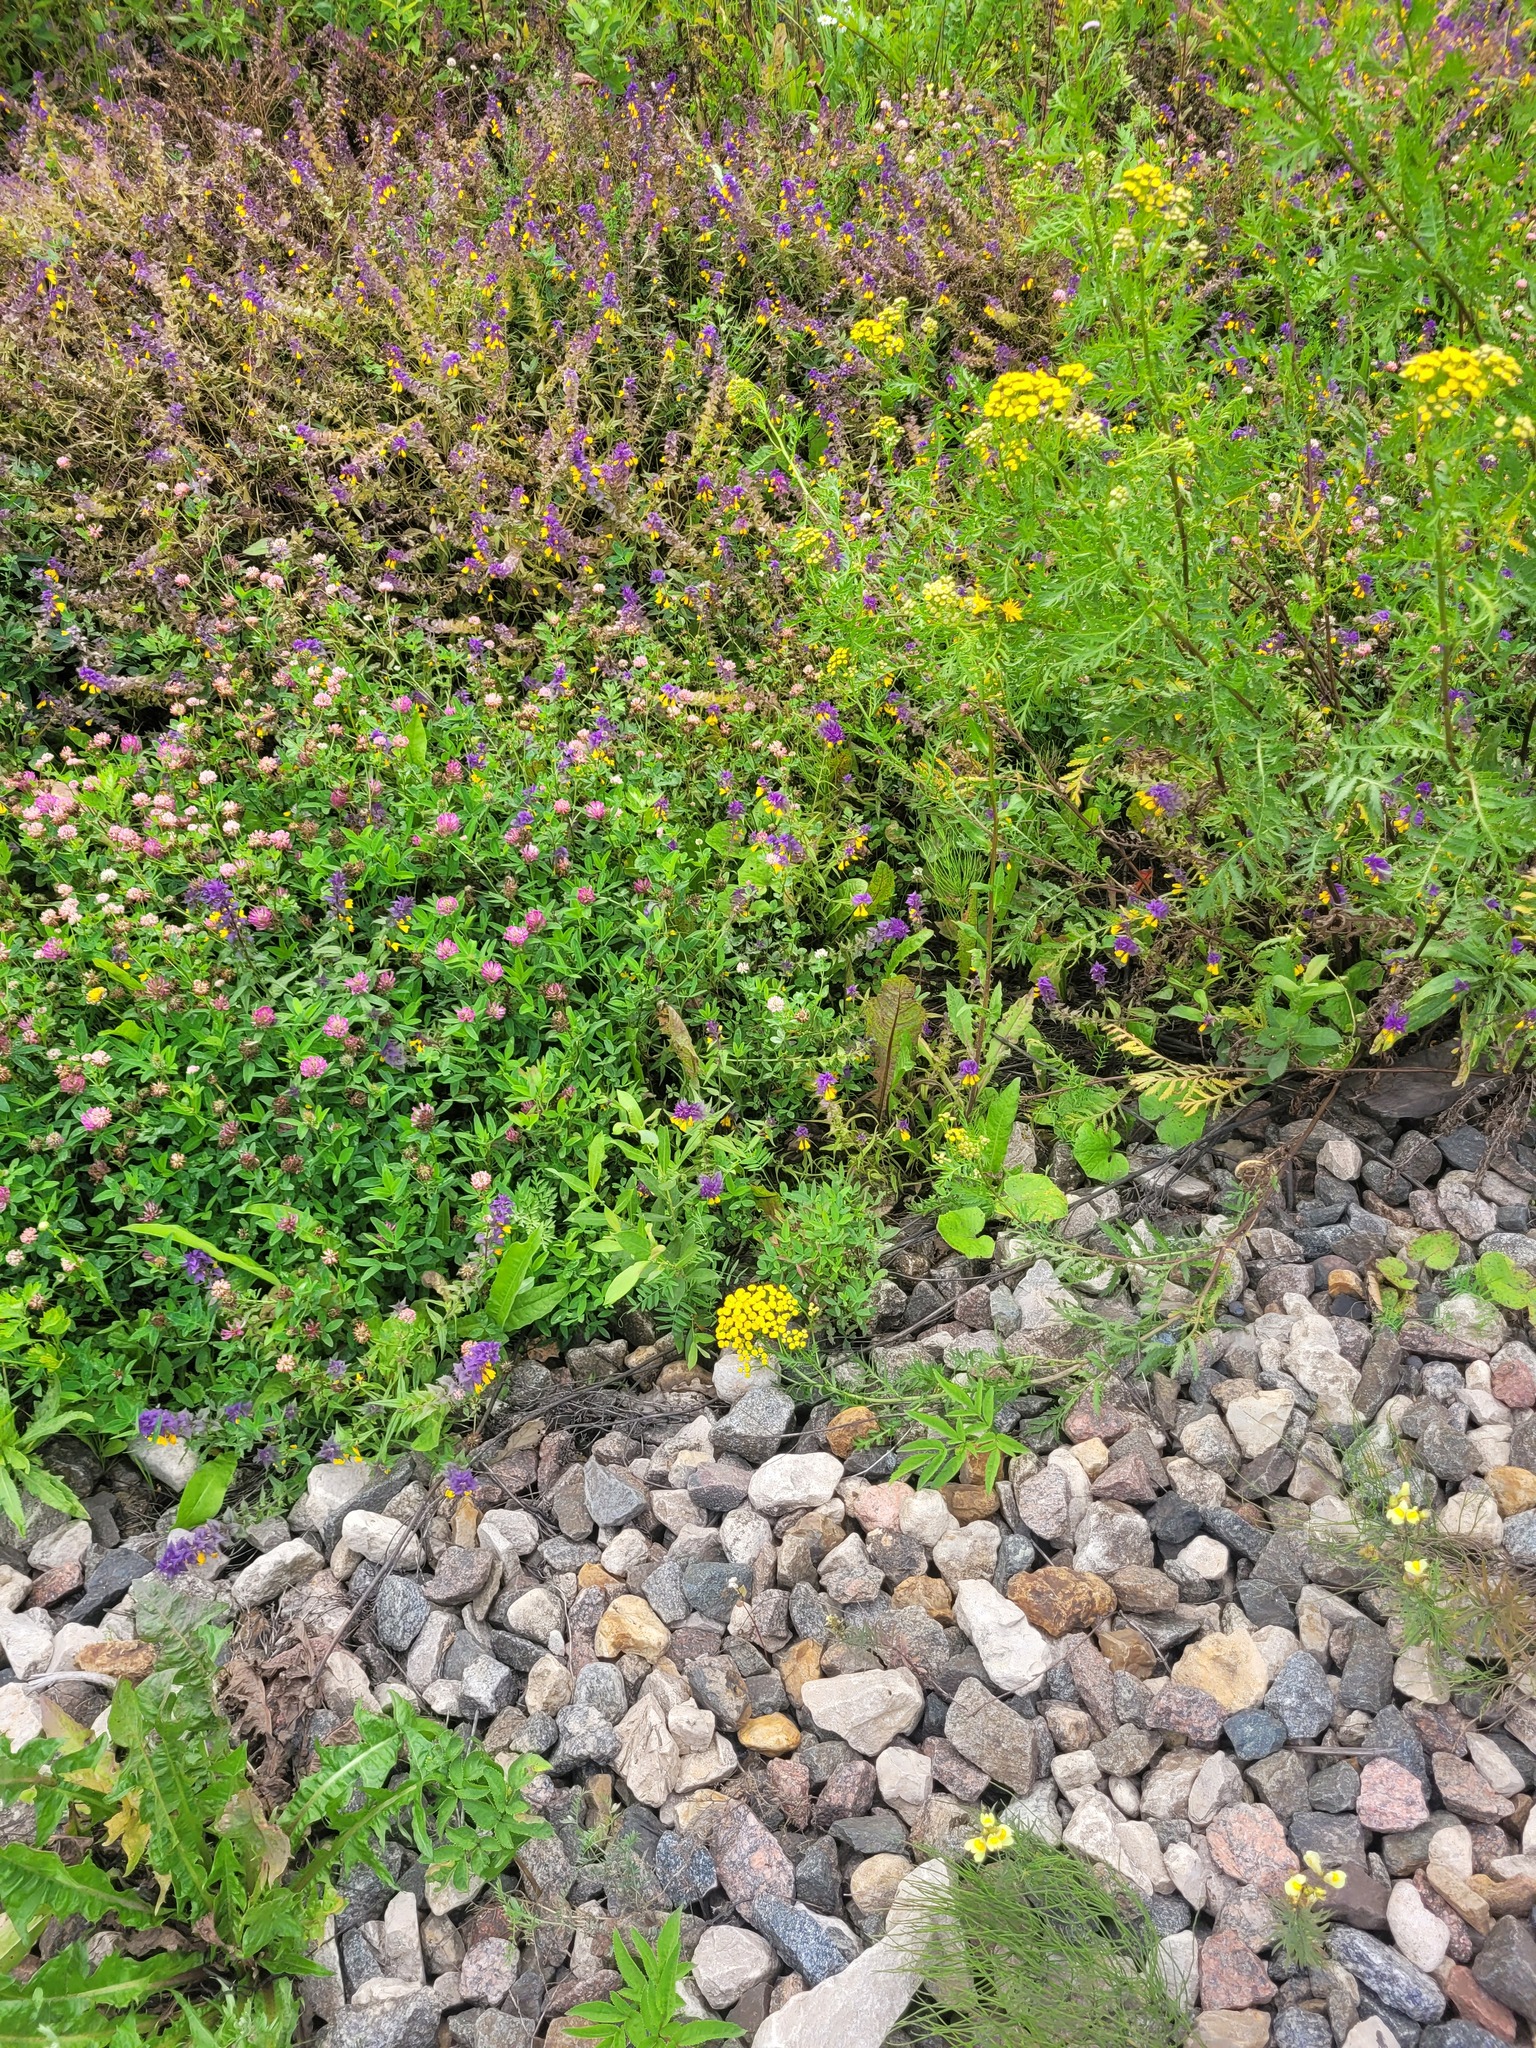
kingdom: Plantae
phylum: Tracheophyta
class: Magnoliopsida
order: Lamiales
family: Orobanchaceae
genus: Melampyrum
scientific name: Melampyrum nemorosum
